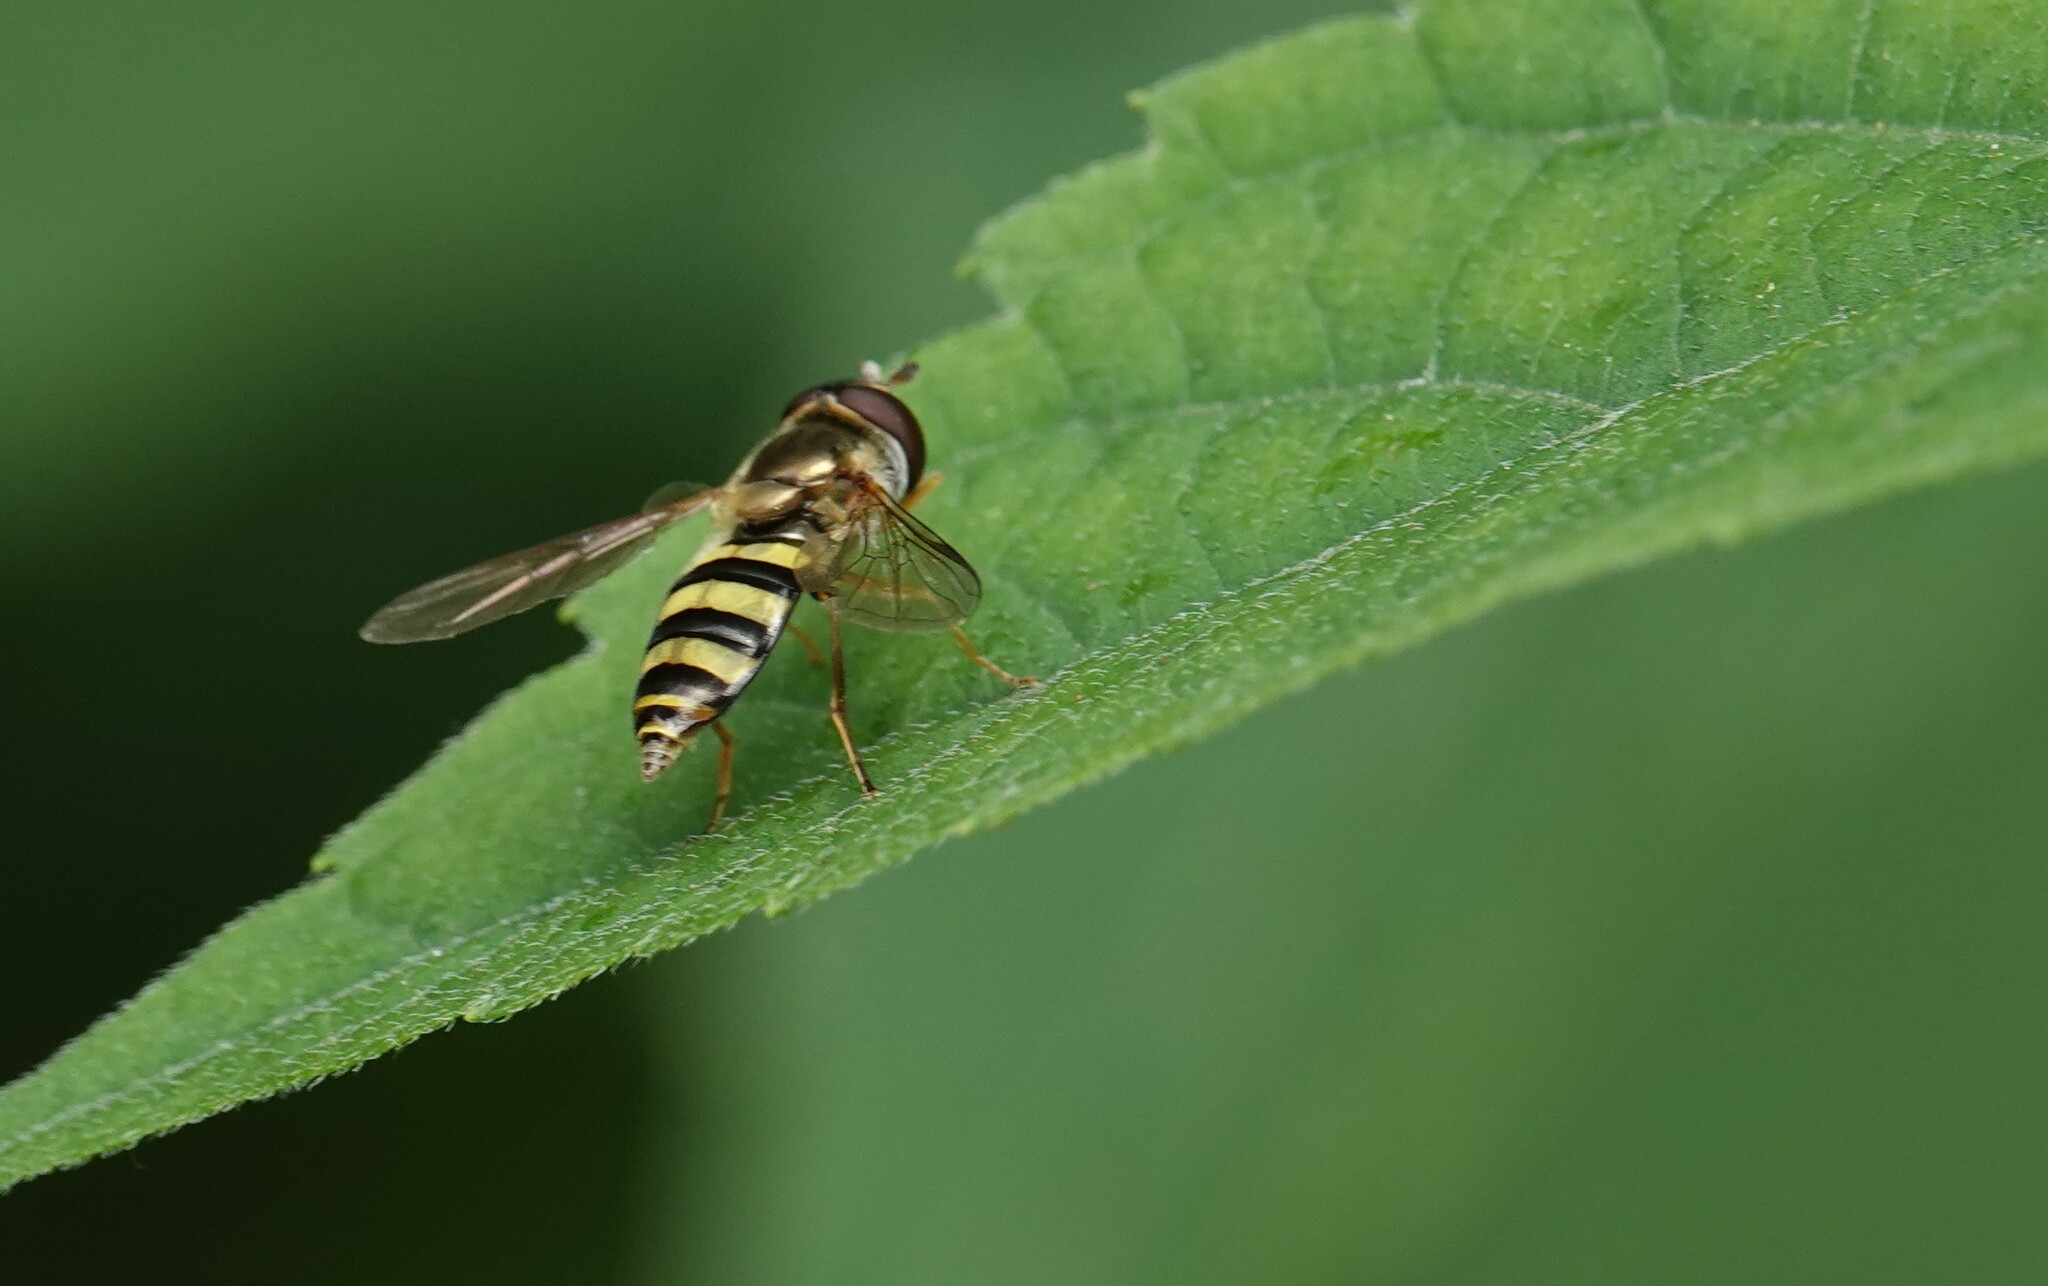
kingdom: Animalia
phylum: Arthropoda
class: Insecta
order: Diptera
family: Syrphidae
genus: Eupeodes
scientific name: Eupeodes
